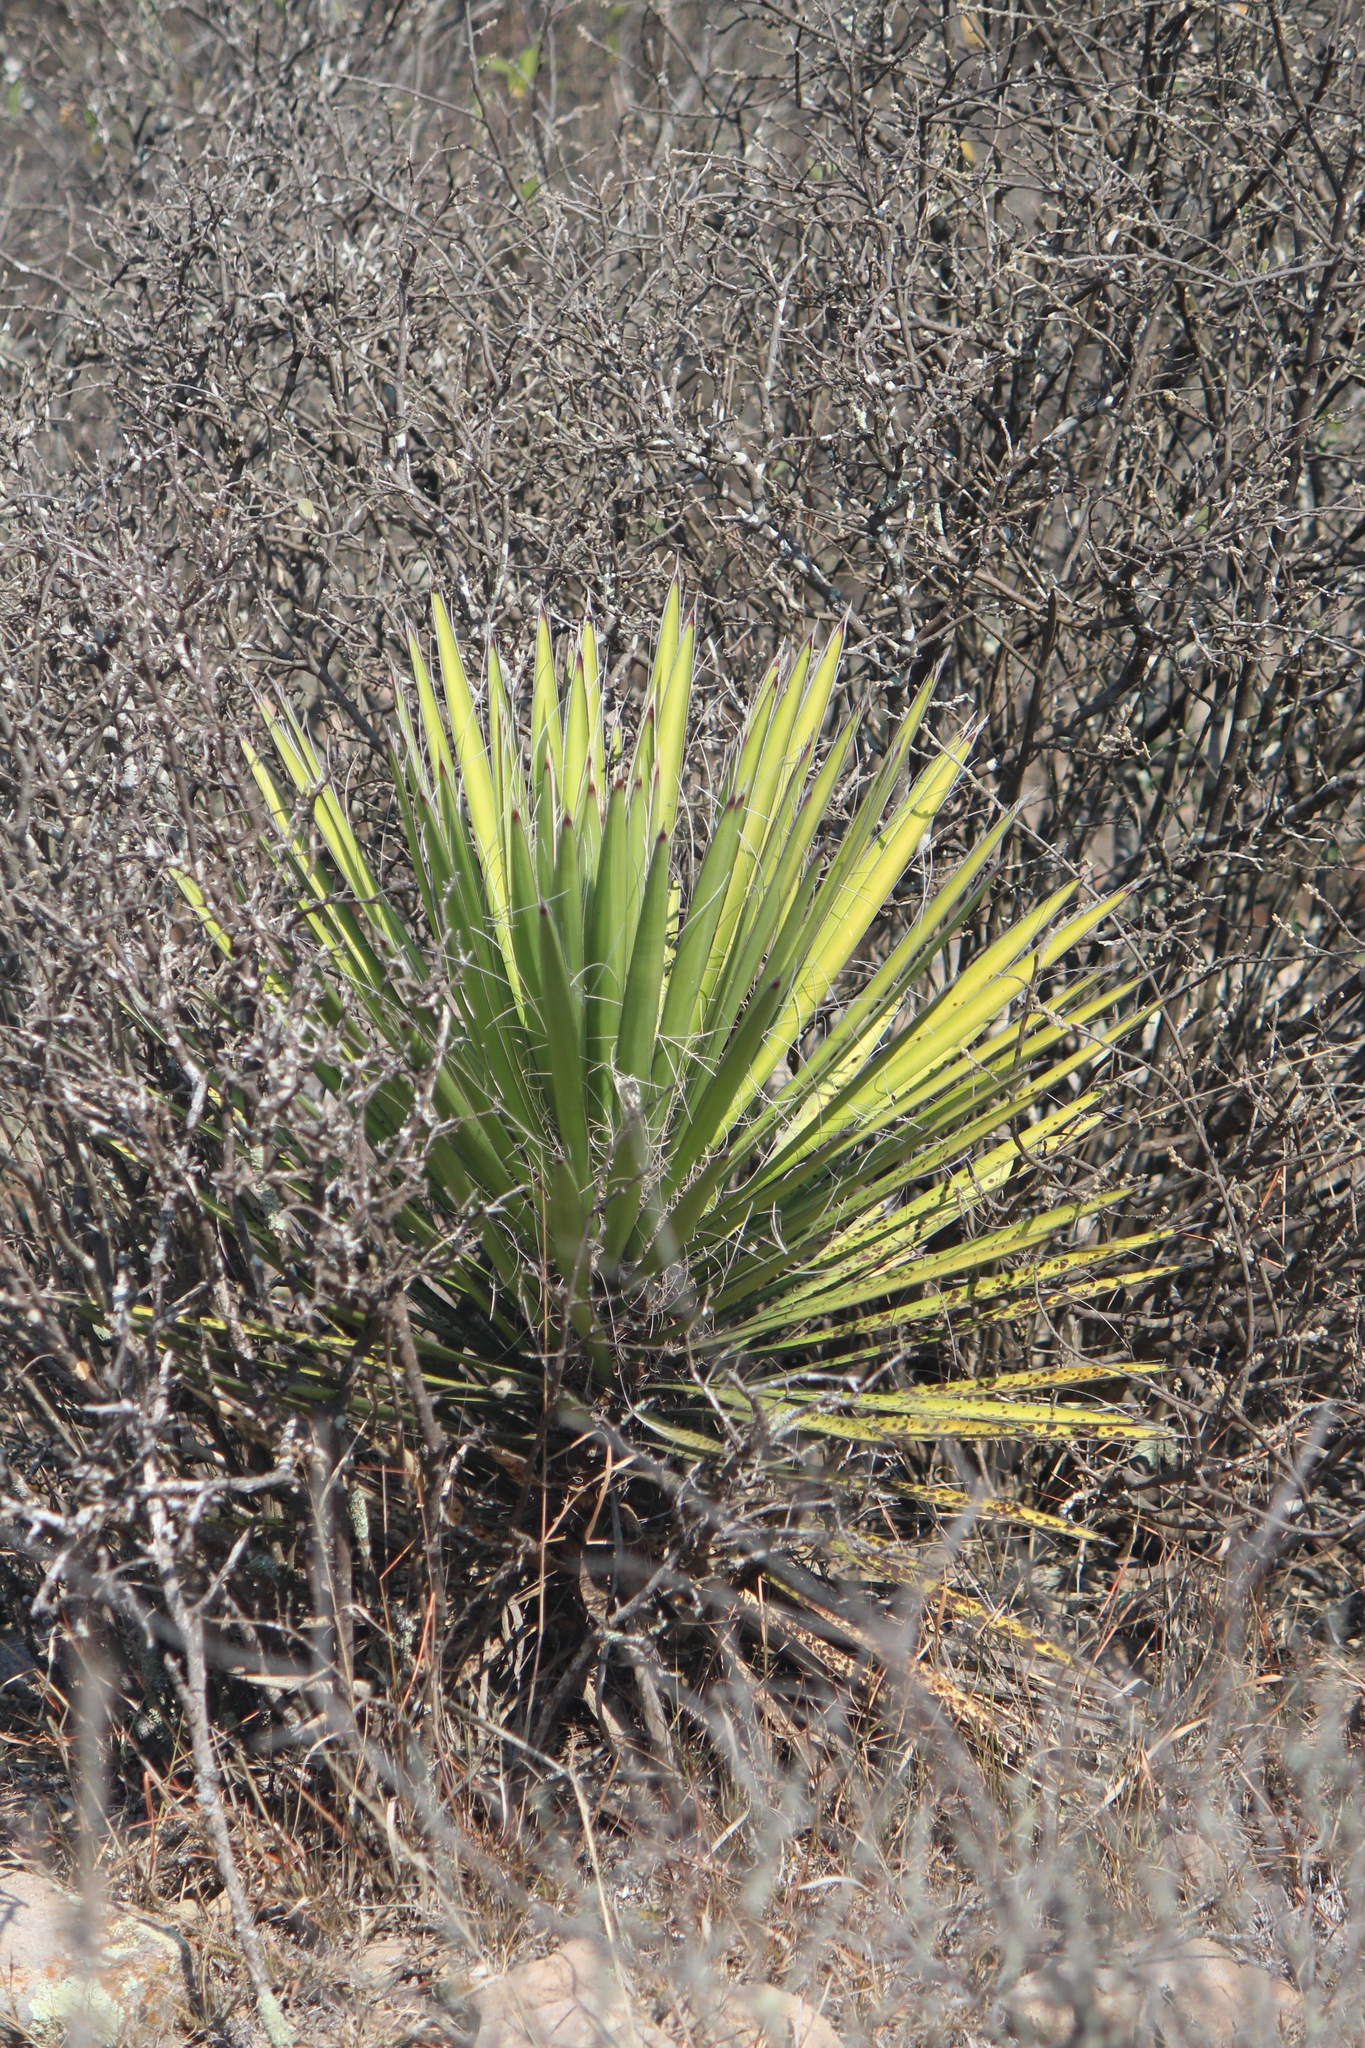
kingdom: Plantae
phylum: Tracheophyta
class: Liliopsida
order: Asparagales
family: Asparagaceae
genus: Yucca
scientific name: Yucca filifera
